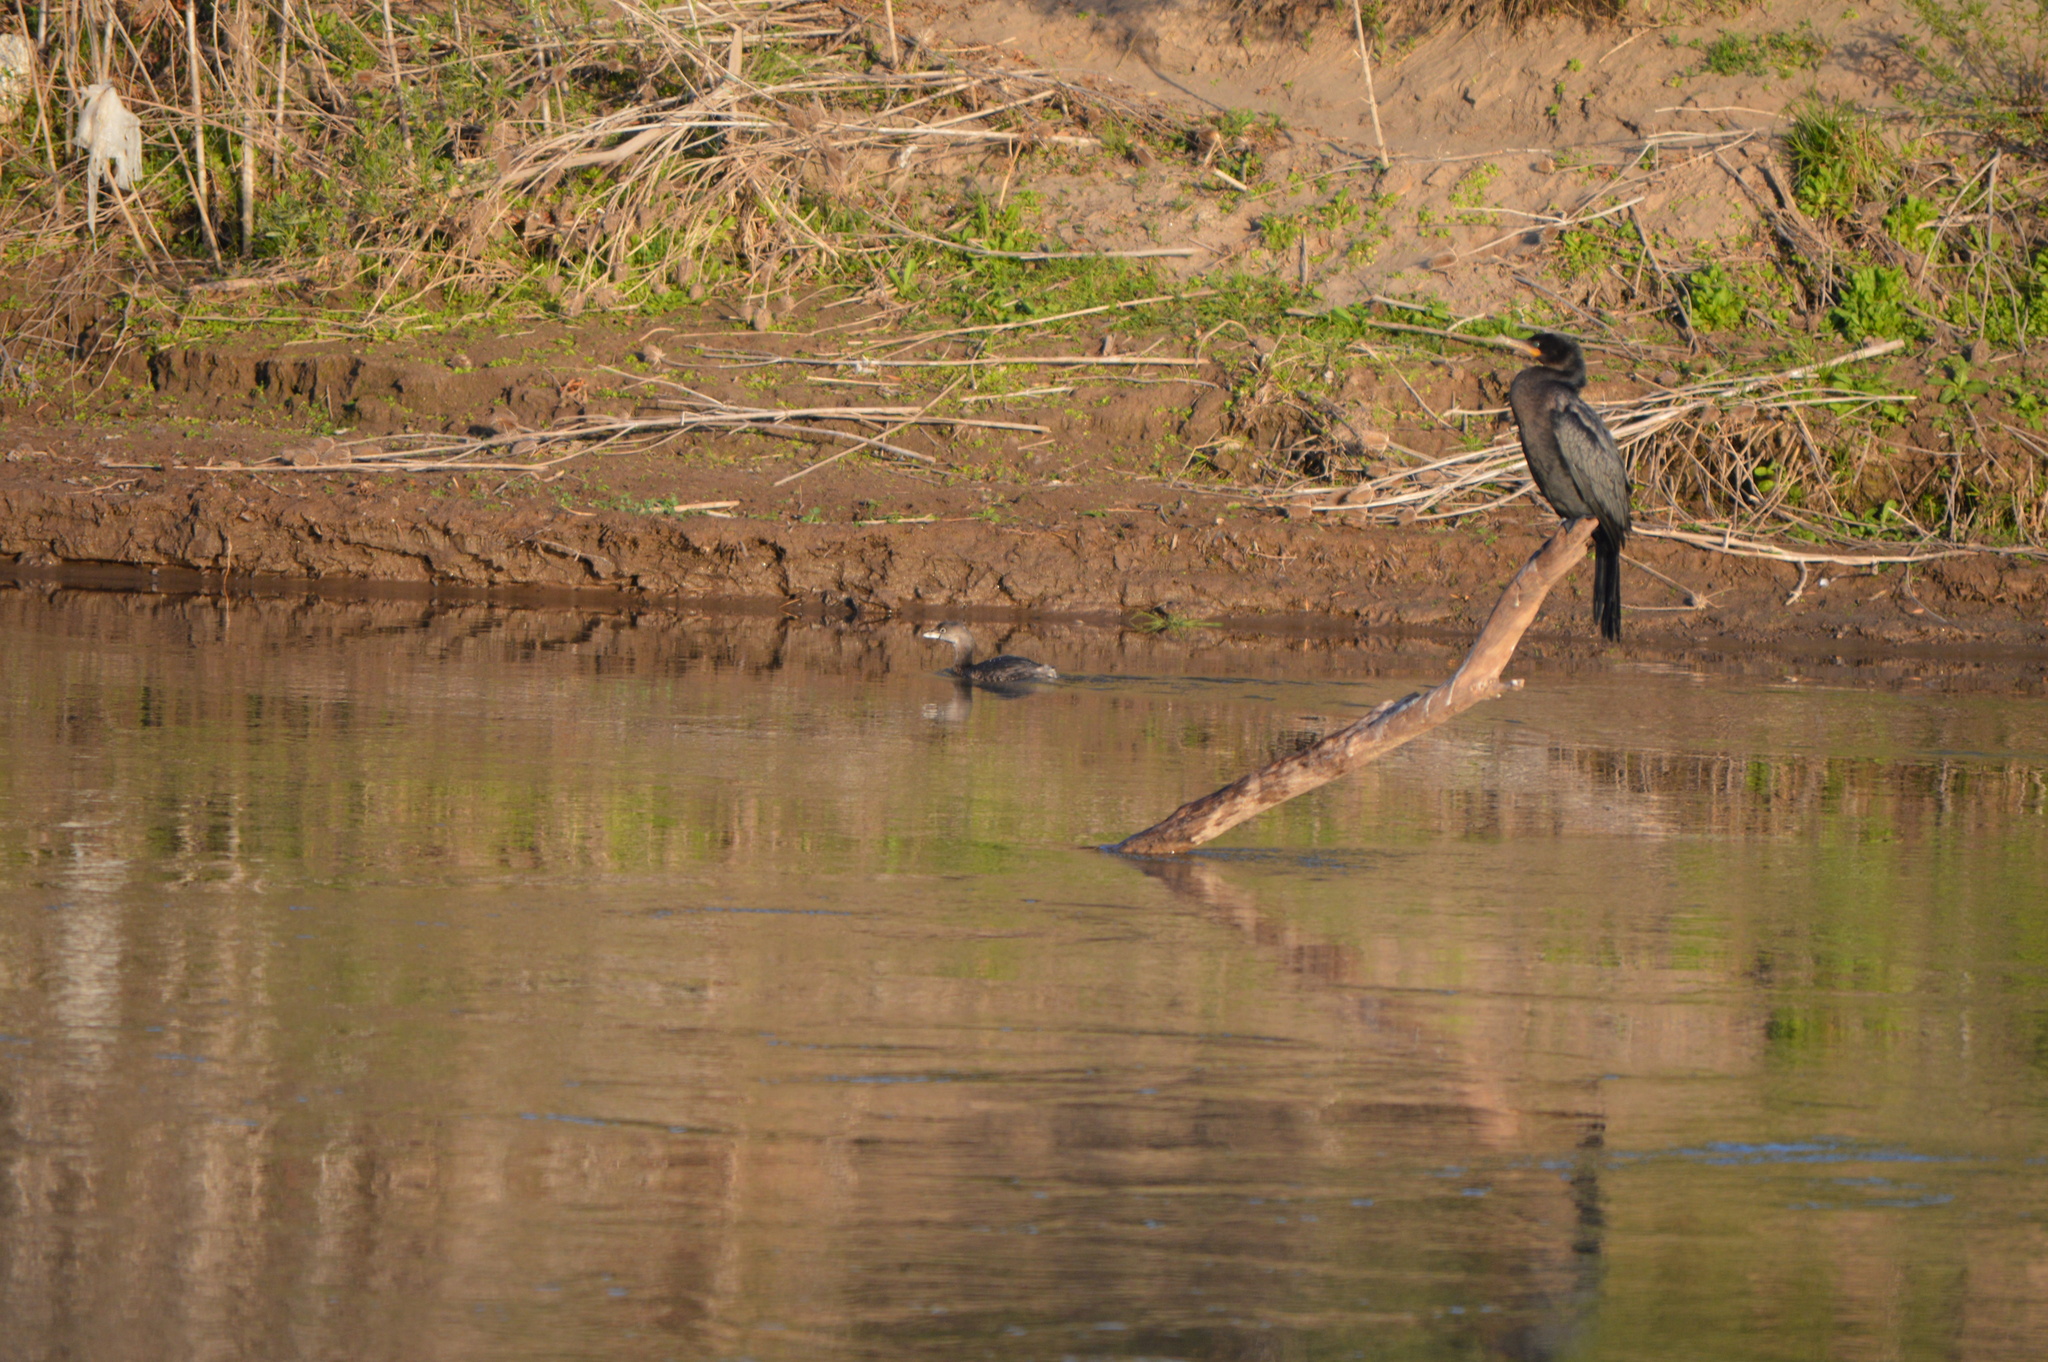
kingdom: Animalia
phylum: Chordata
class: Aves
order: Podicipediformes
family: Podicipedidae
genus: Podilymbus
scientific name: Podilymbus podiceps
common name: Pied-billed grebe
